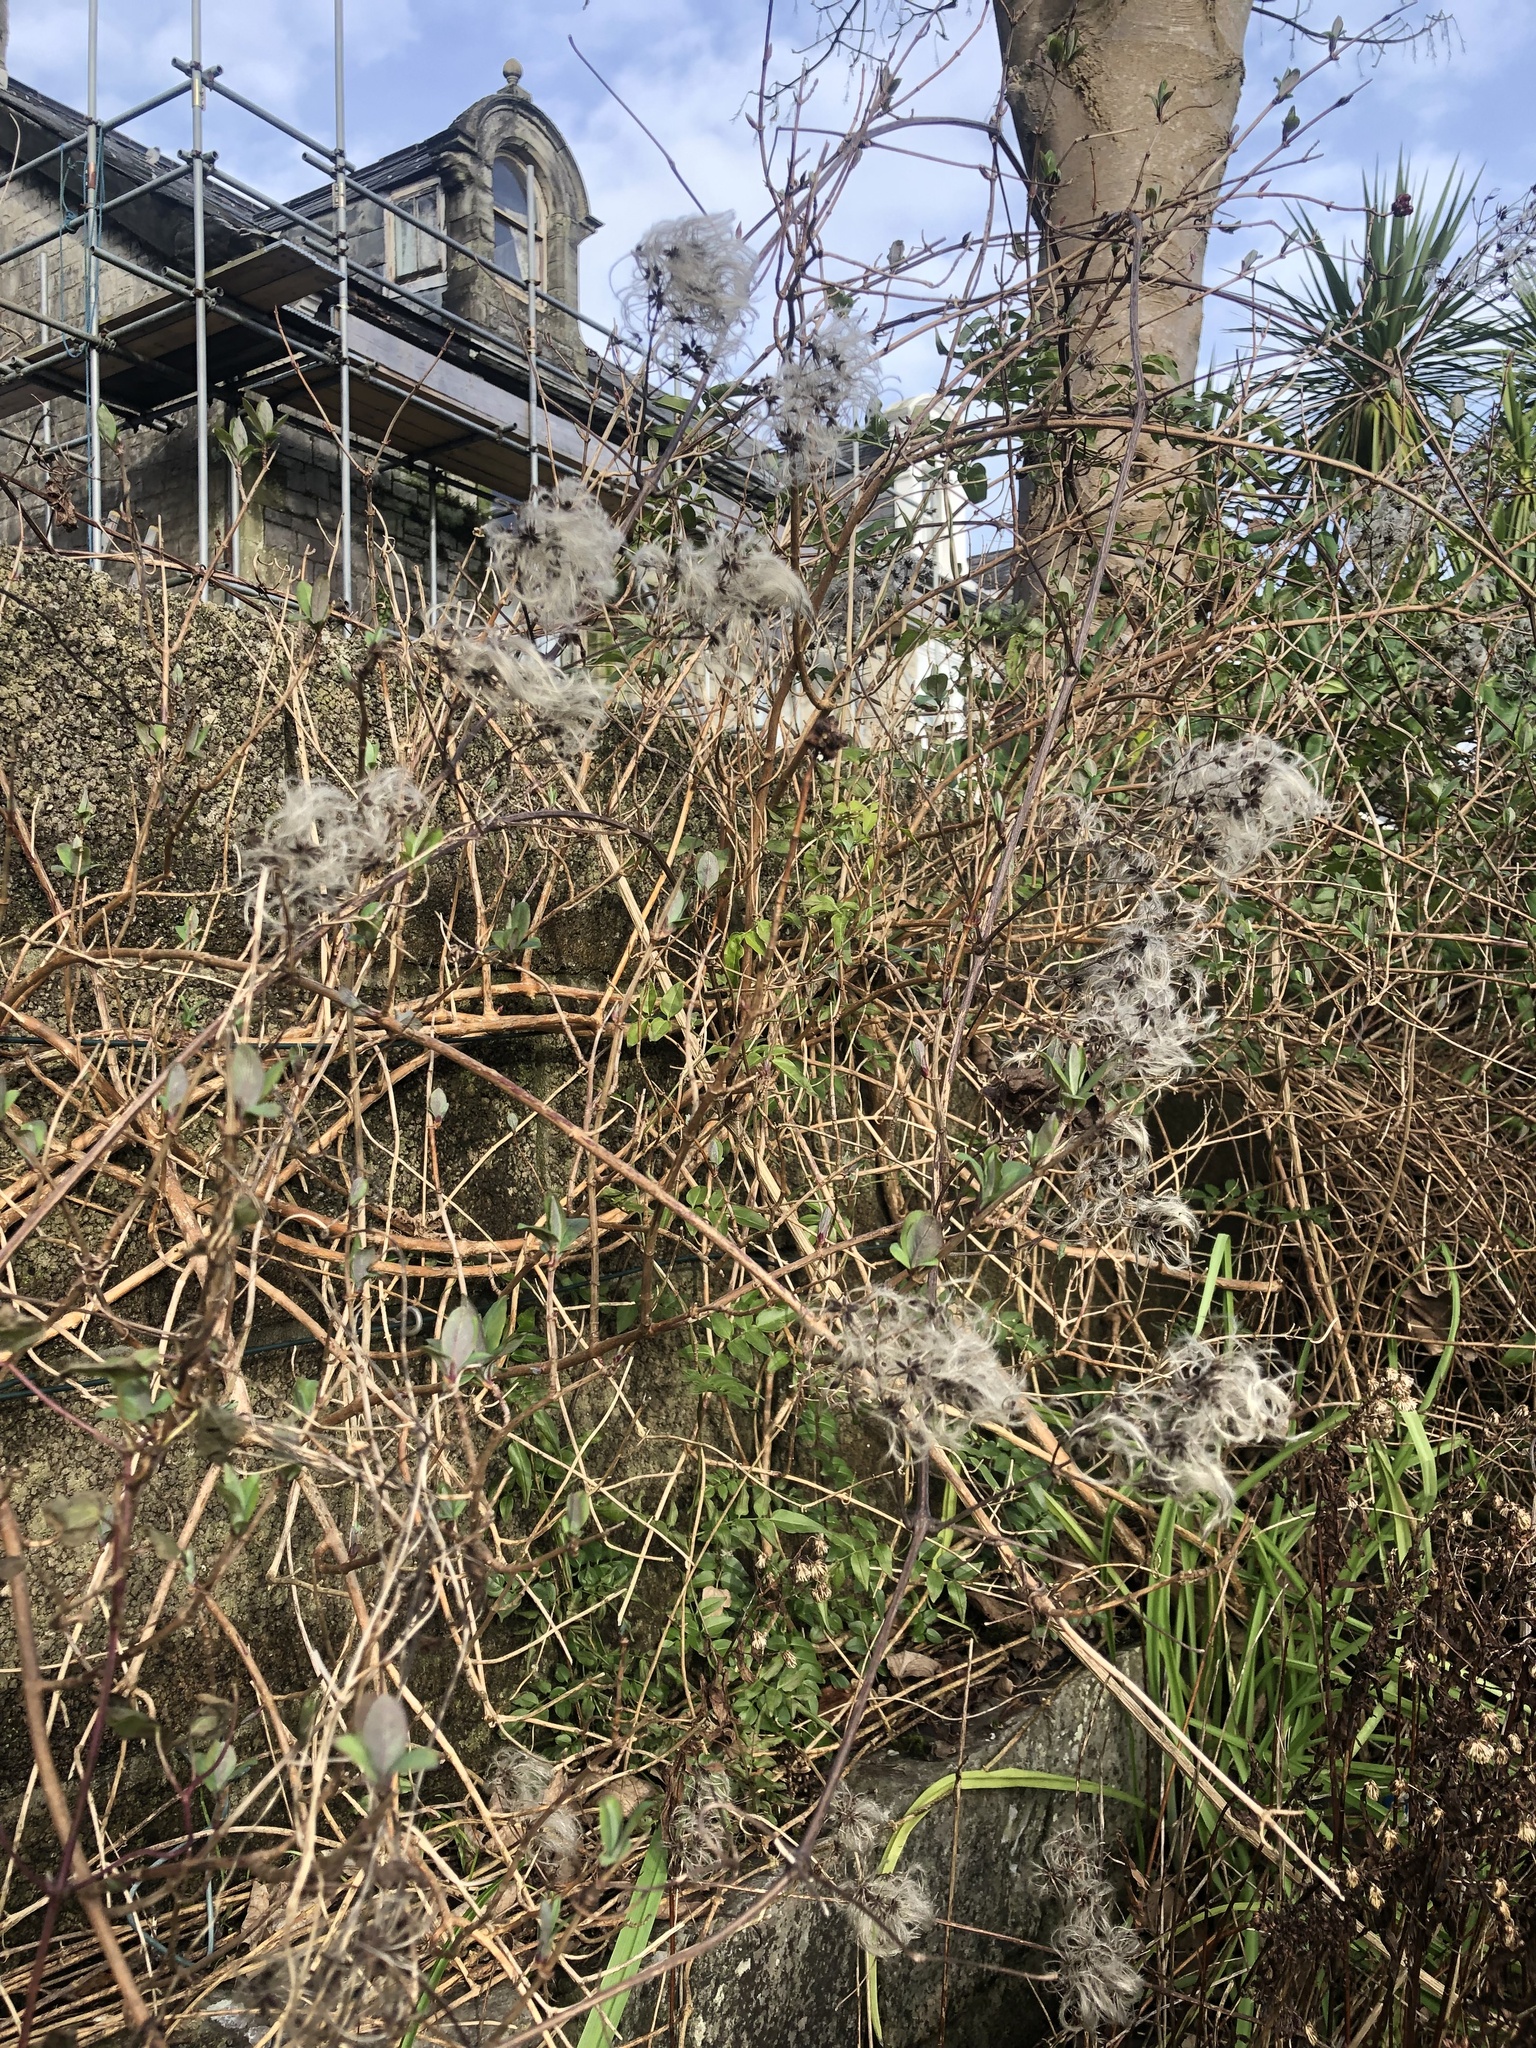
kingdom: Plantae
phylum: Tracheophyta
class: Magnoliopsida
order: Ranunculales
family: Ranunculaceae
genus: Clematis
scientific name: Clematis vitalba
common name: Evergreen clematis
